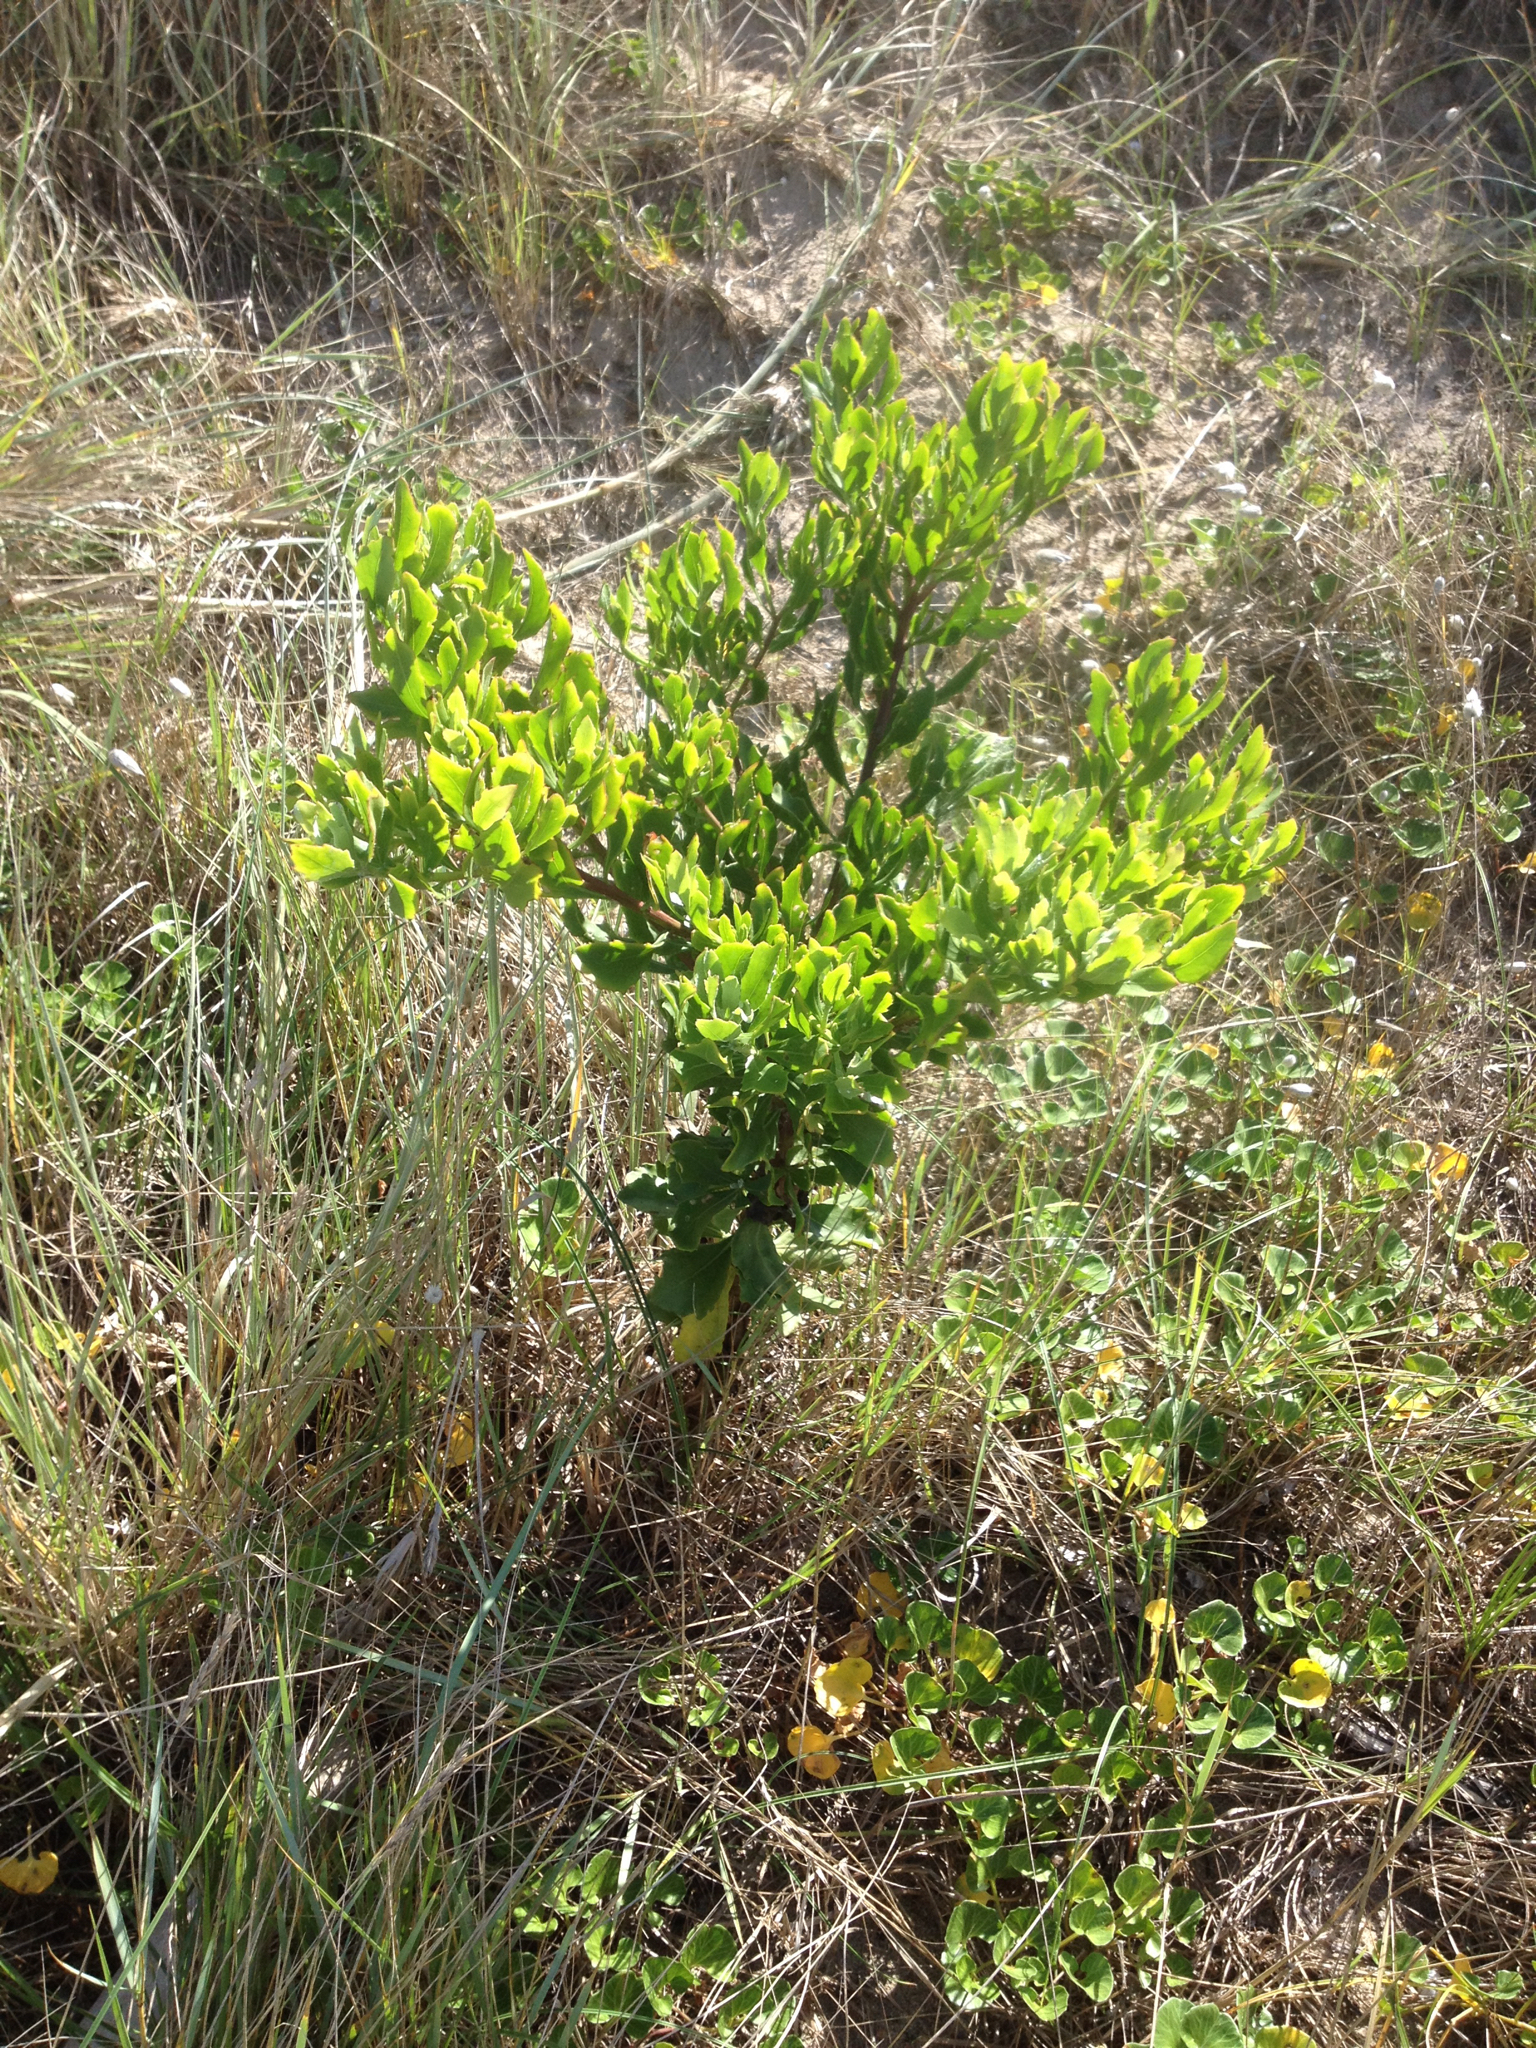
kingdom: Plantae
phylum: Tracheophyta
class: Magnoliopsida
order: Asterales
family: Asteraceae
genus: Osteospermum
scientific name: Osteospermum moniliferum
